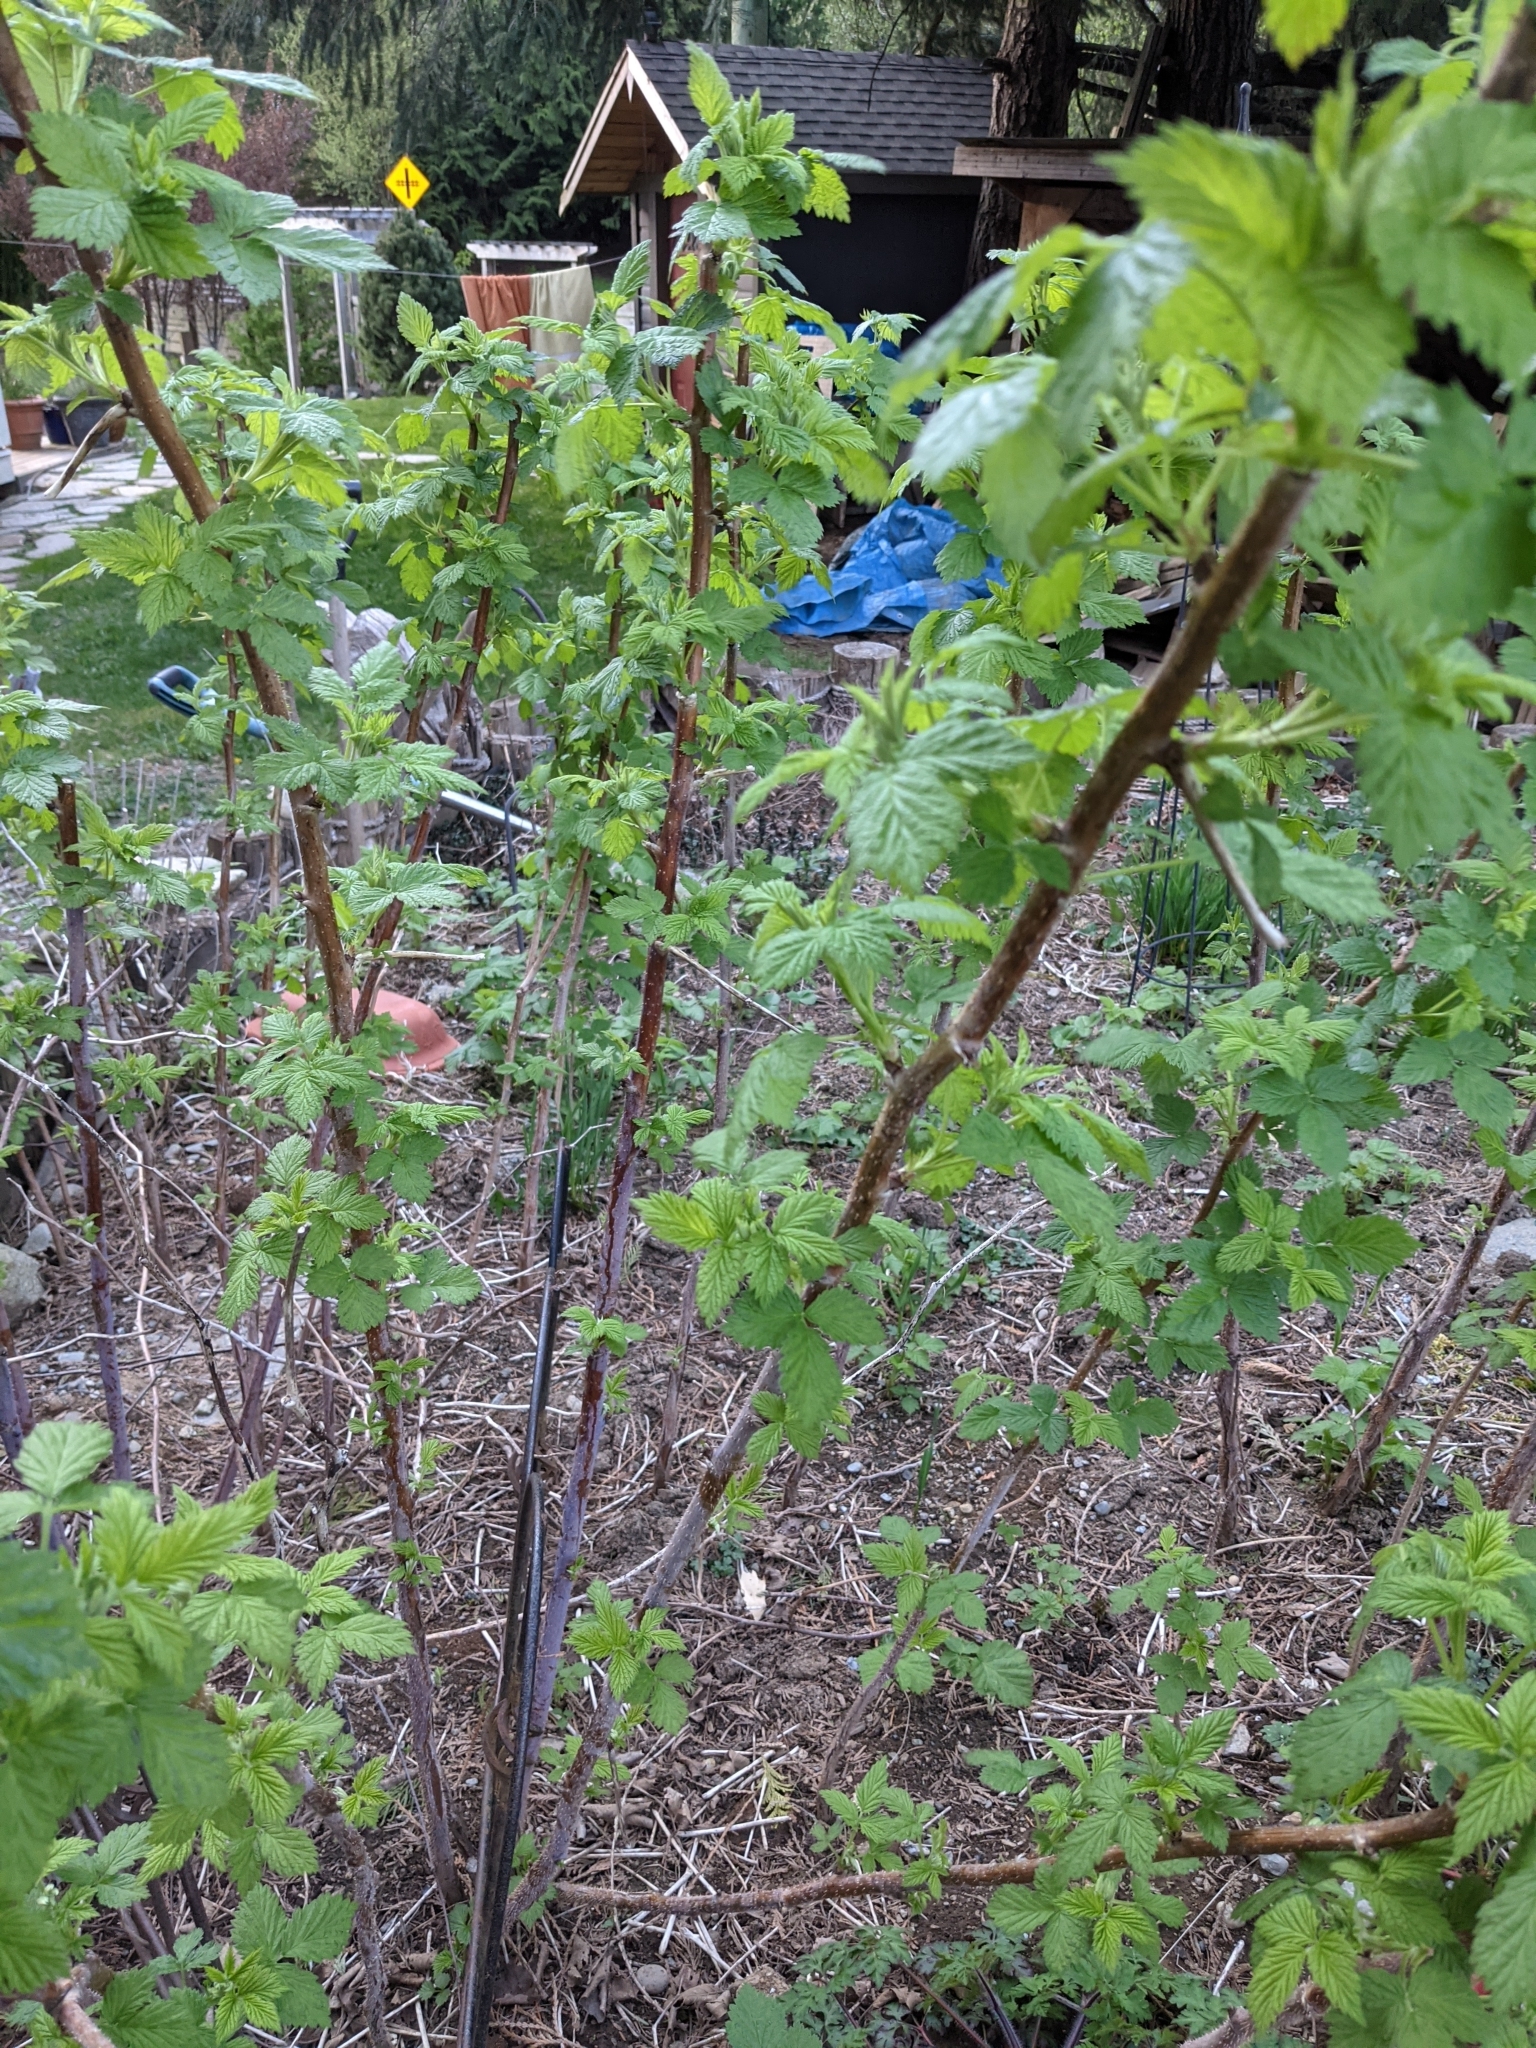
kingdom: Plantae
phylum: Tracheophyta
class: Magnoliopsida
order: Rosales
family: Rosaceae
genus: Rubus
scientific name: Rubus idaeus
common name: Raspberry
